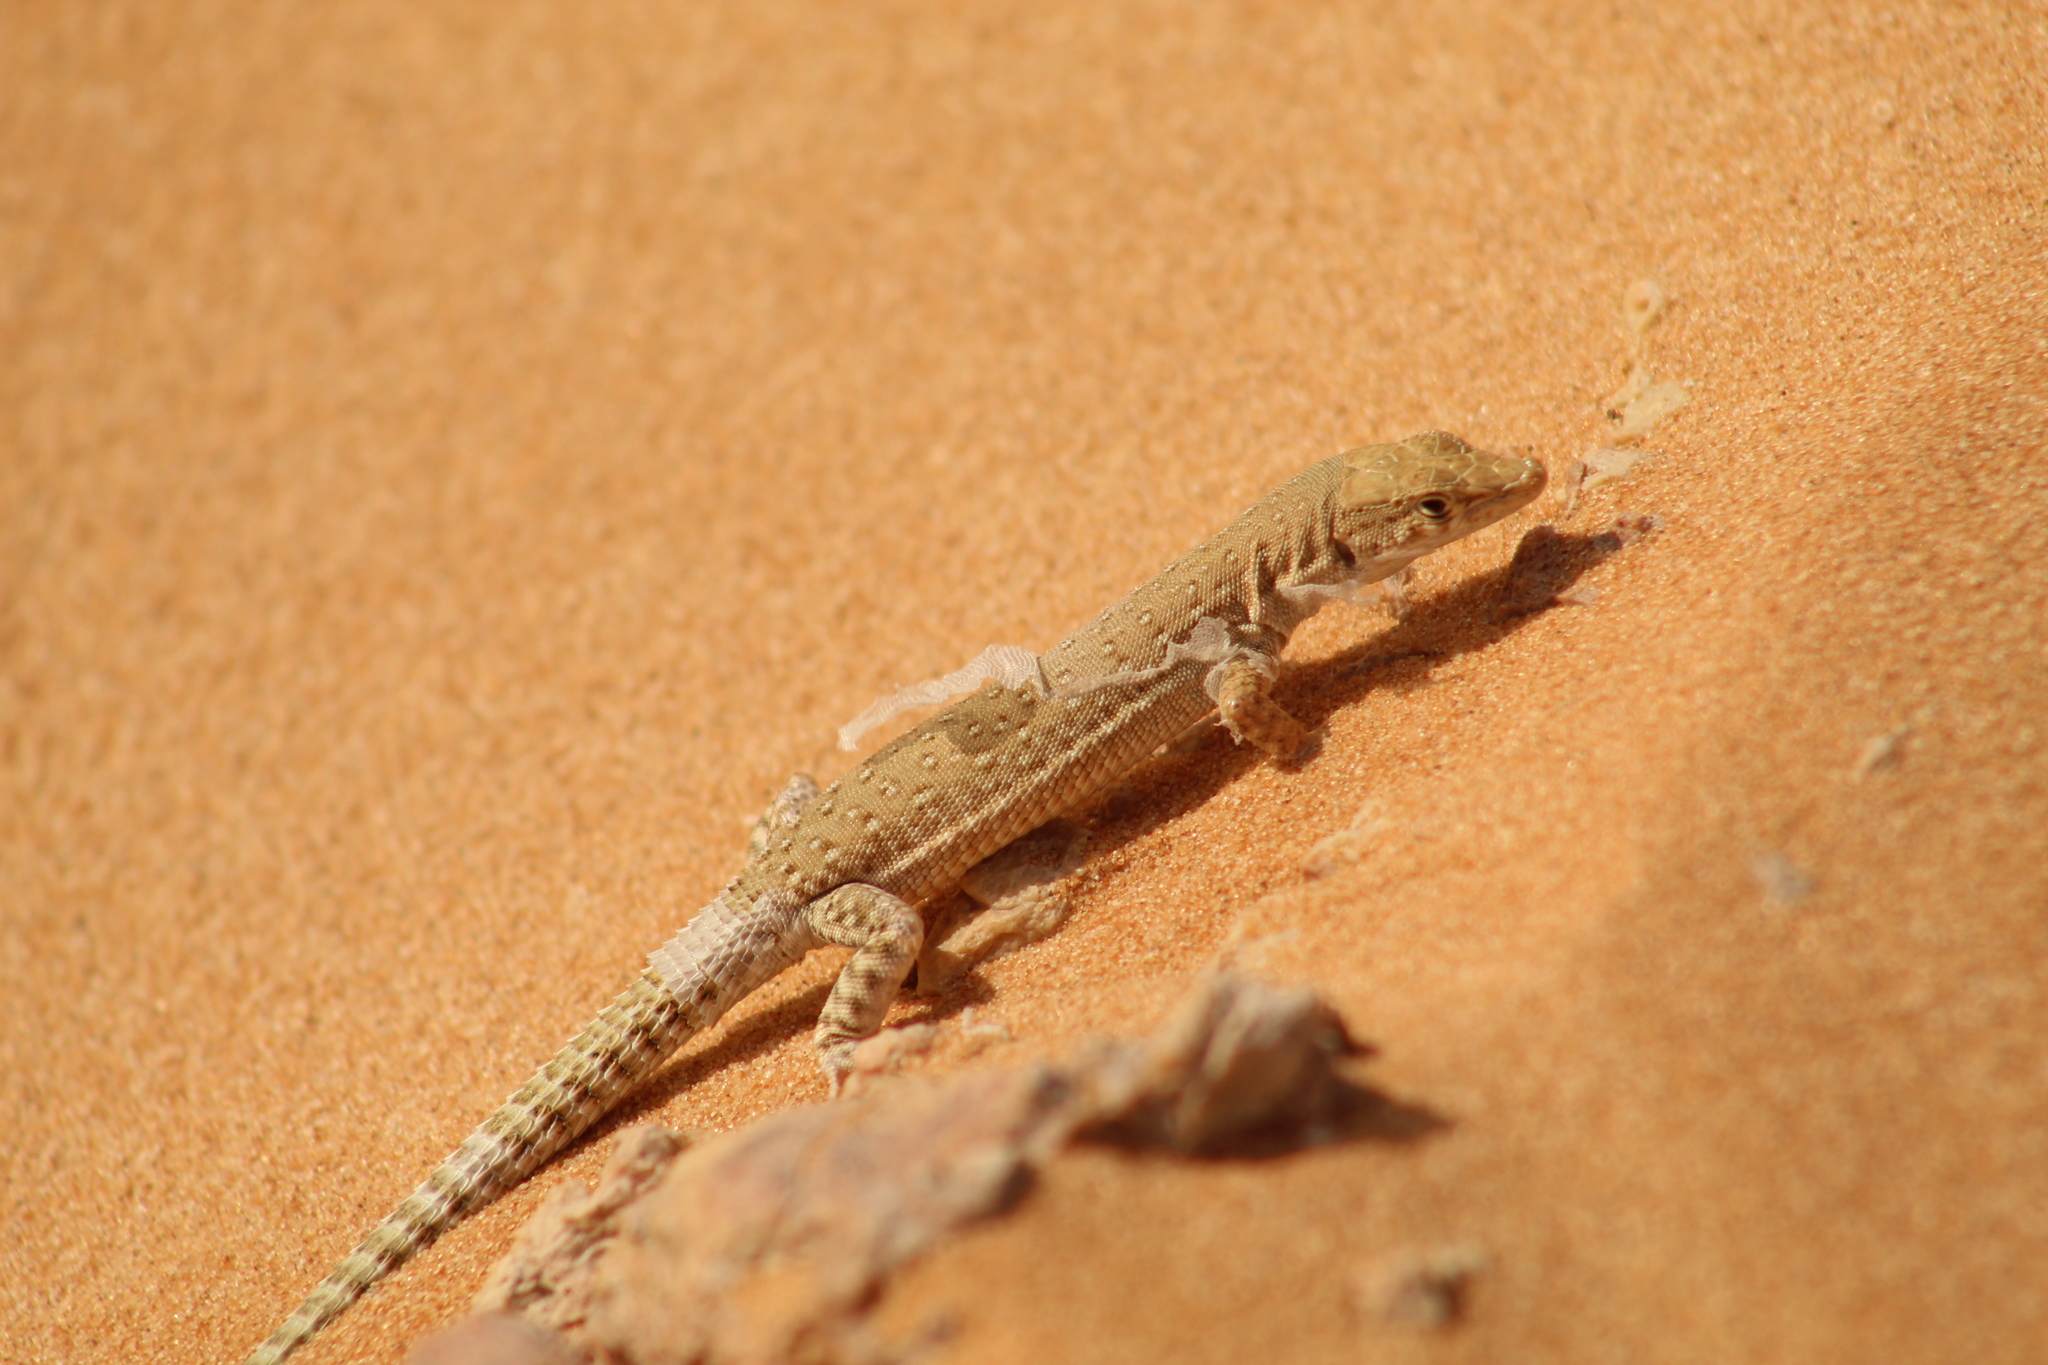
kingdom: Animalia
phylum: Chordata
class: Squamata
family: Lacertidae
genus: Mesalina
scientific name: Mesalina brevirostris
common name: Blanford's short-nosed desert lizard
